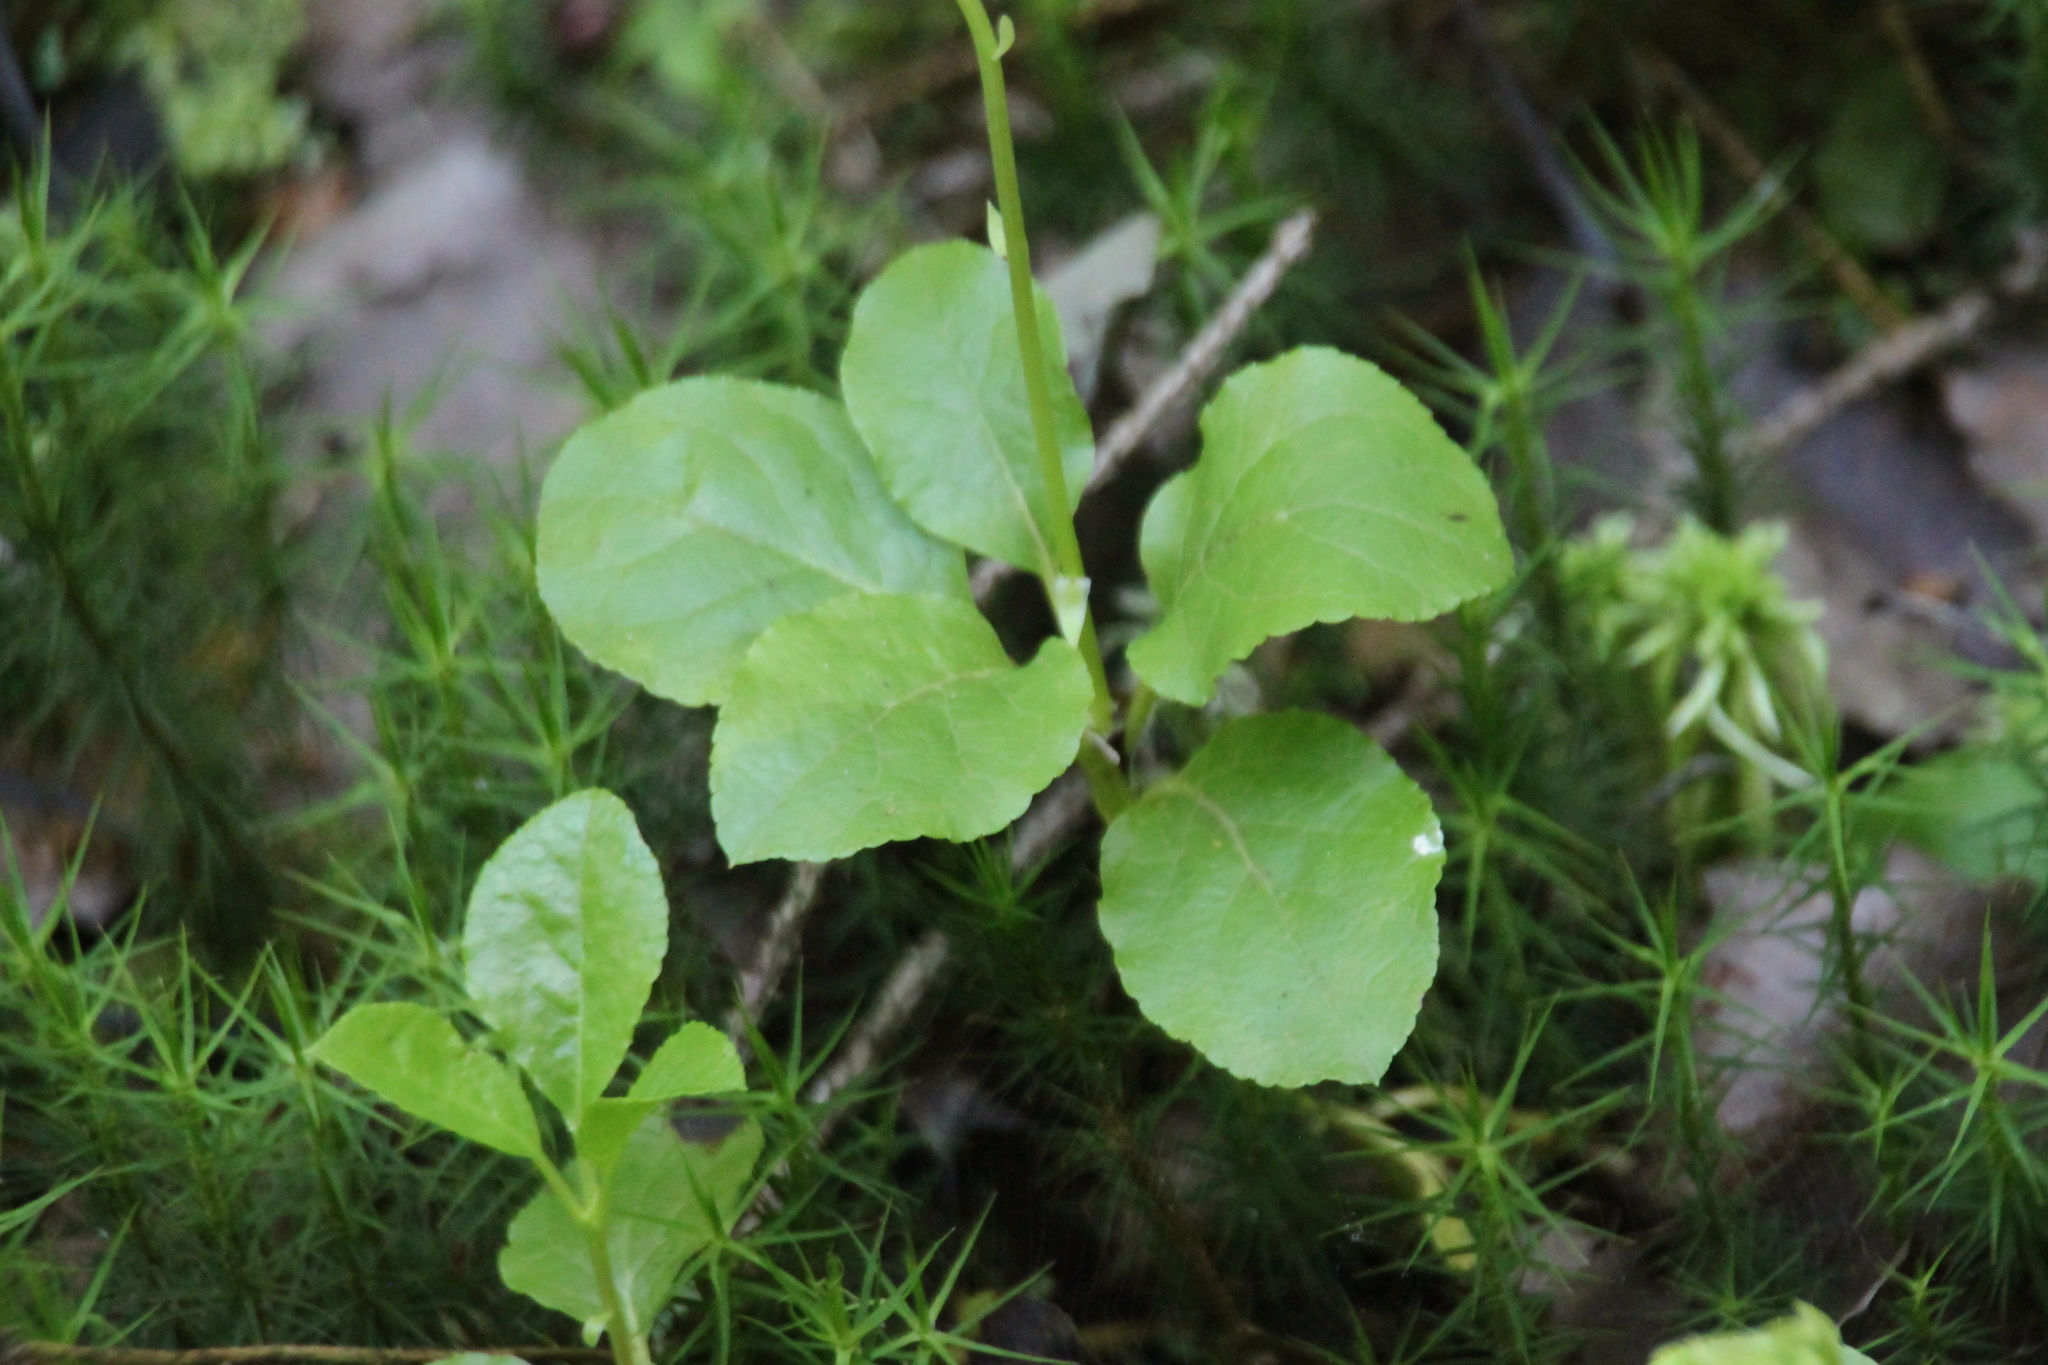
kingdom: Plantae
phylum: Tracheophyta
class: Magnoliopsida
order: Ericales
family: Ericaceae
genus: Orthilia
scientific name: Orthilia secunda
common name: One-sided orthilia
